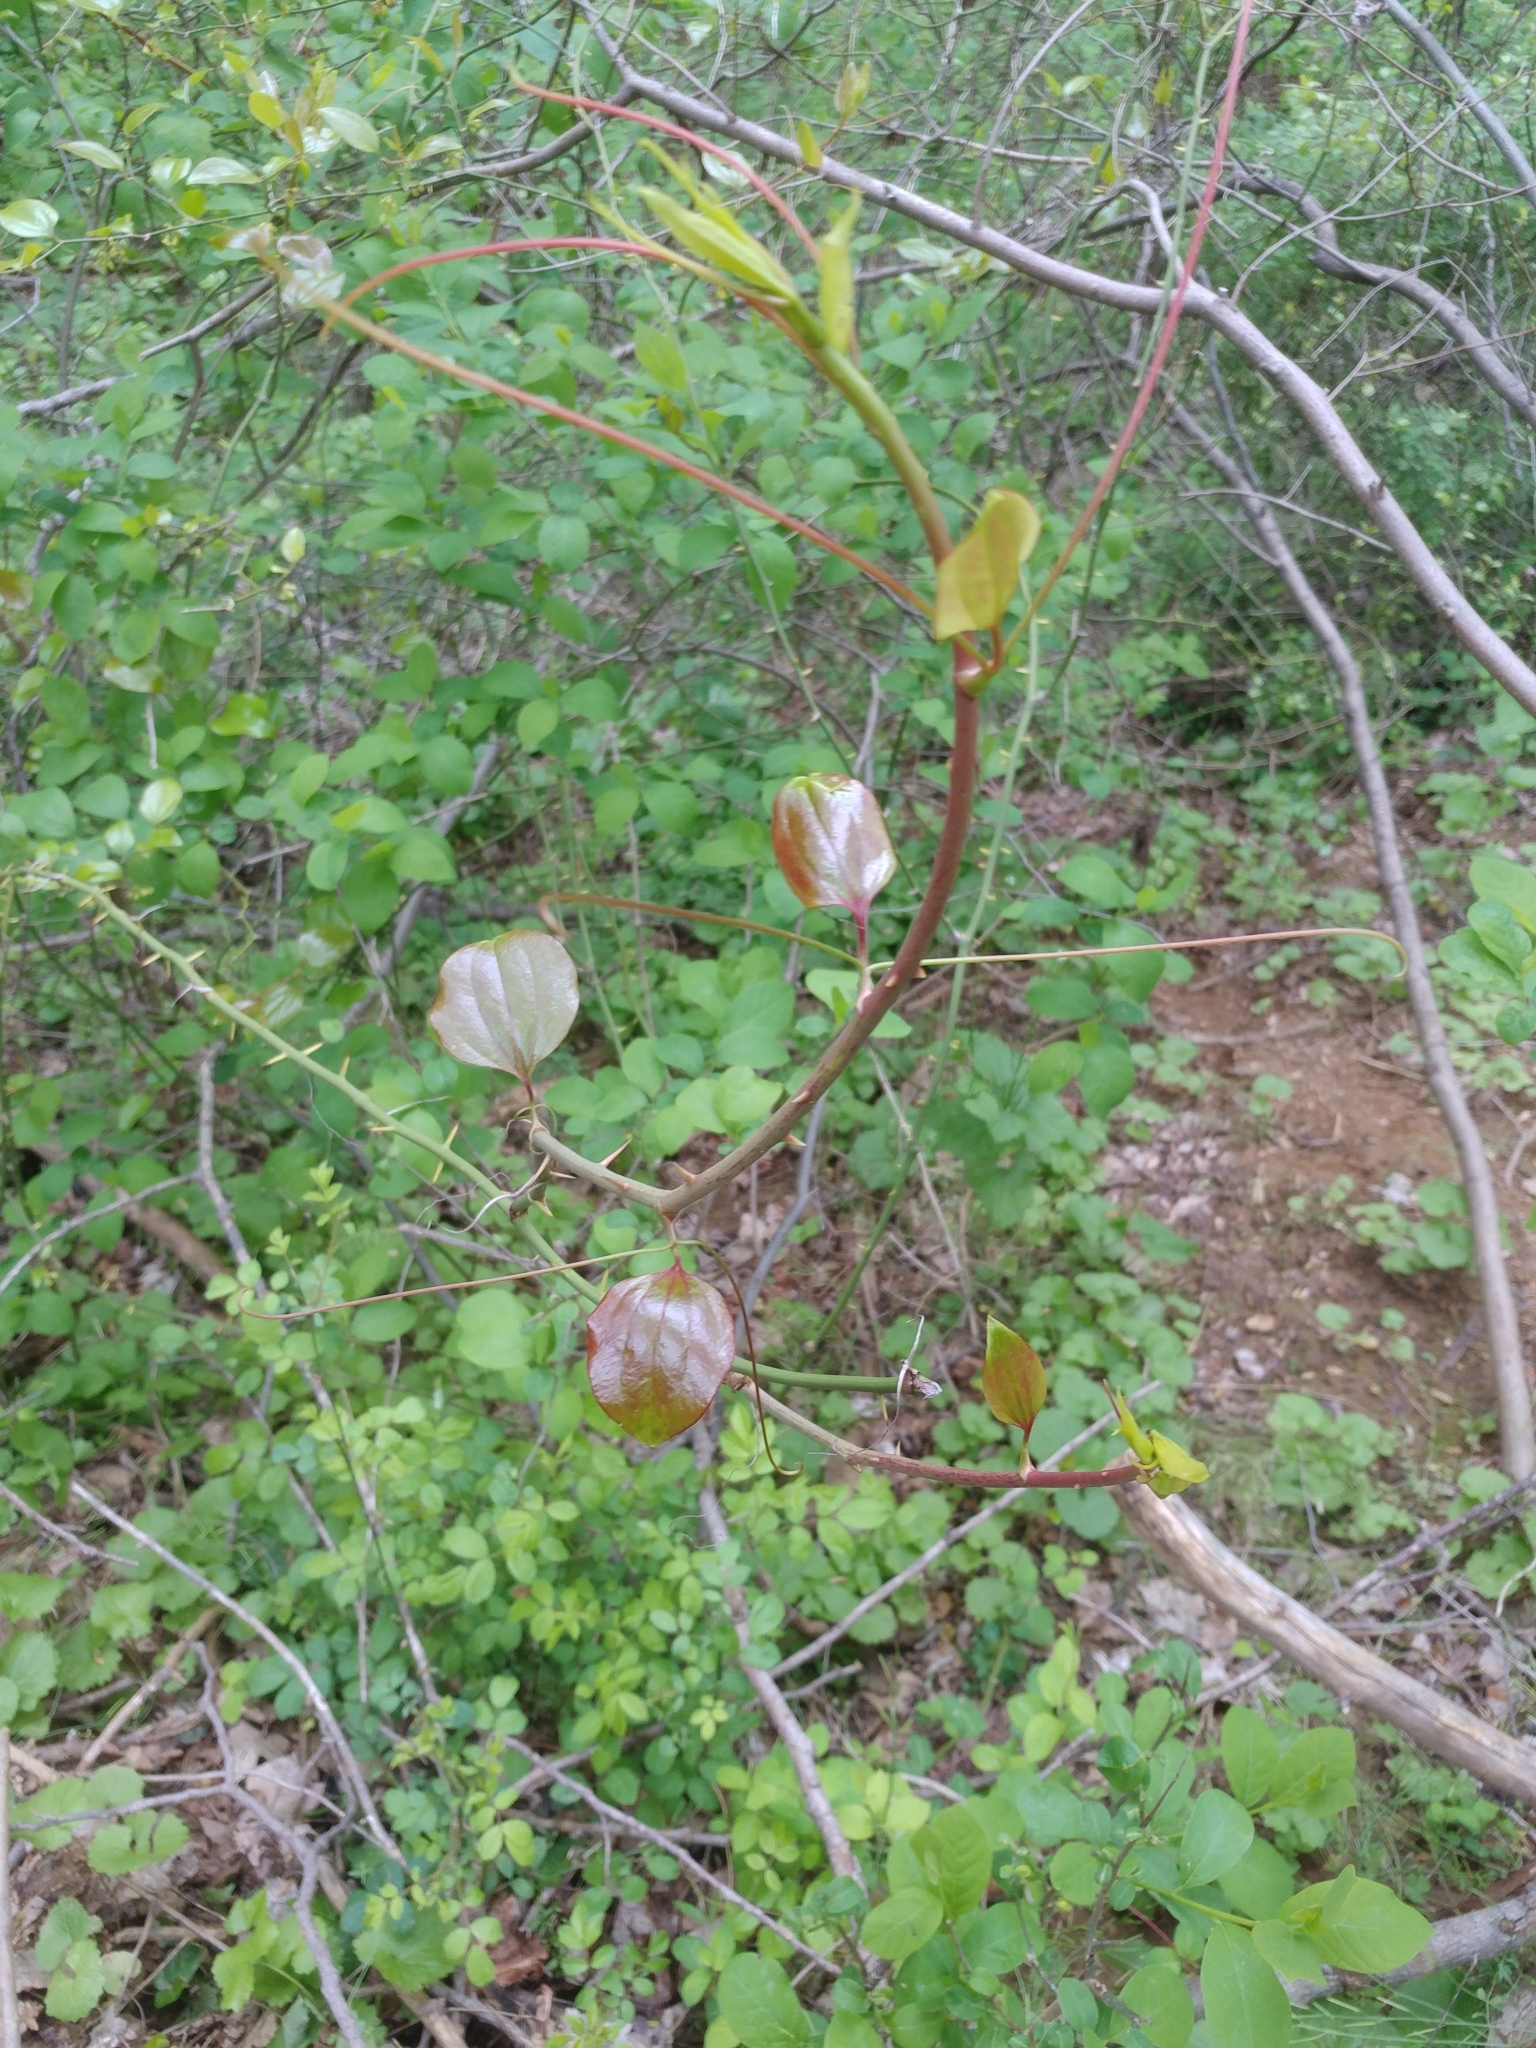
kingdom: Plantae
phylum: Tracheophyta
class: Liliopsida
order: Liliales
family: Smilacaceae
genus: Smilax
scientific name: Smilax rotundifolia
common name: Bullbriar
